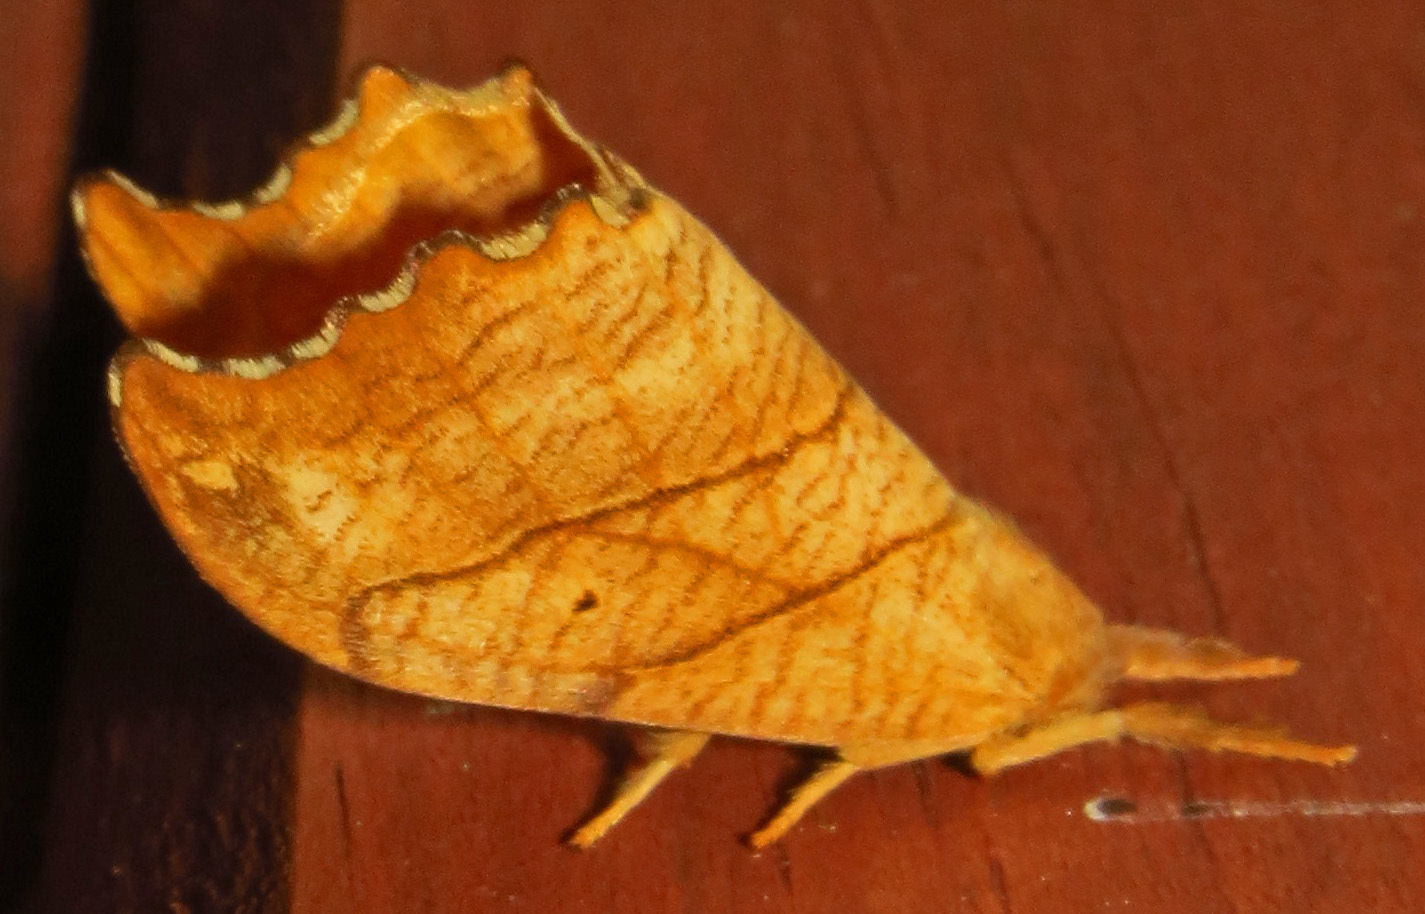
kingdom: Animalia
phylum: Arthropoda
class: Insecta
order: Lepidoptera
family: Drepanidae
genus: Falcaria
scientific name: Falcaria bilineata
